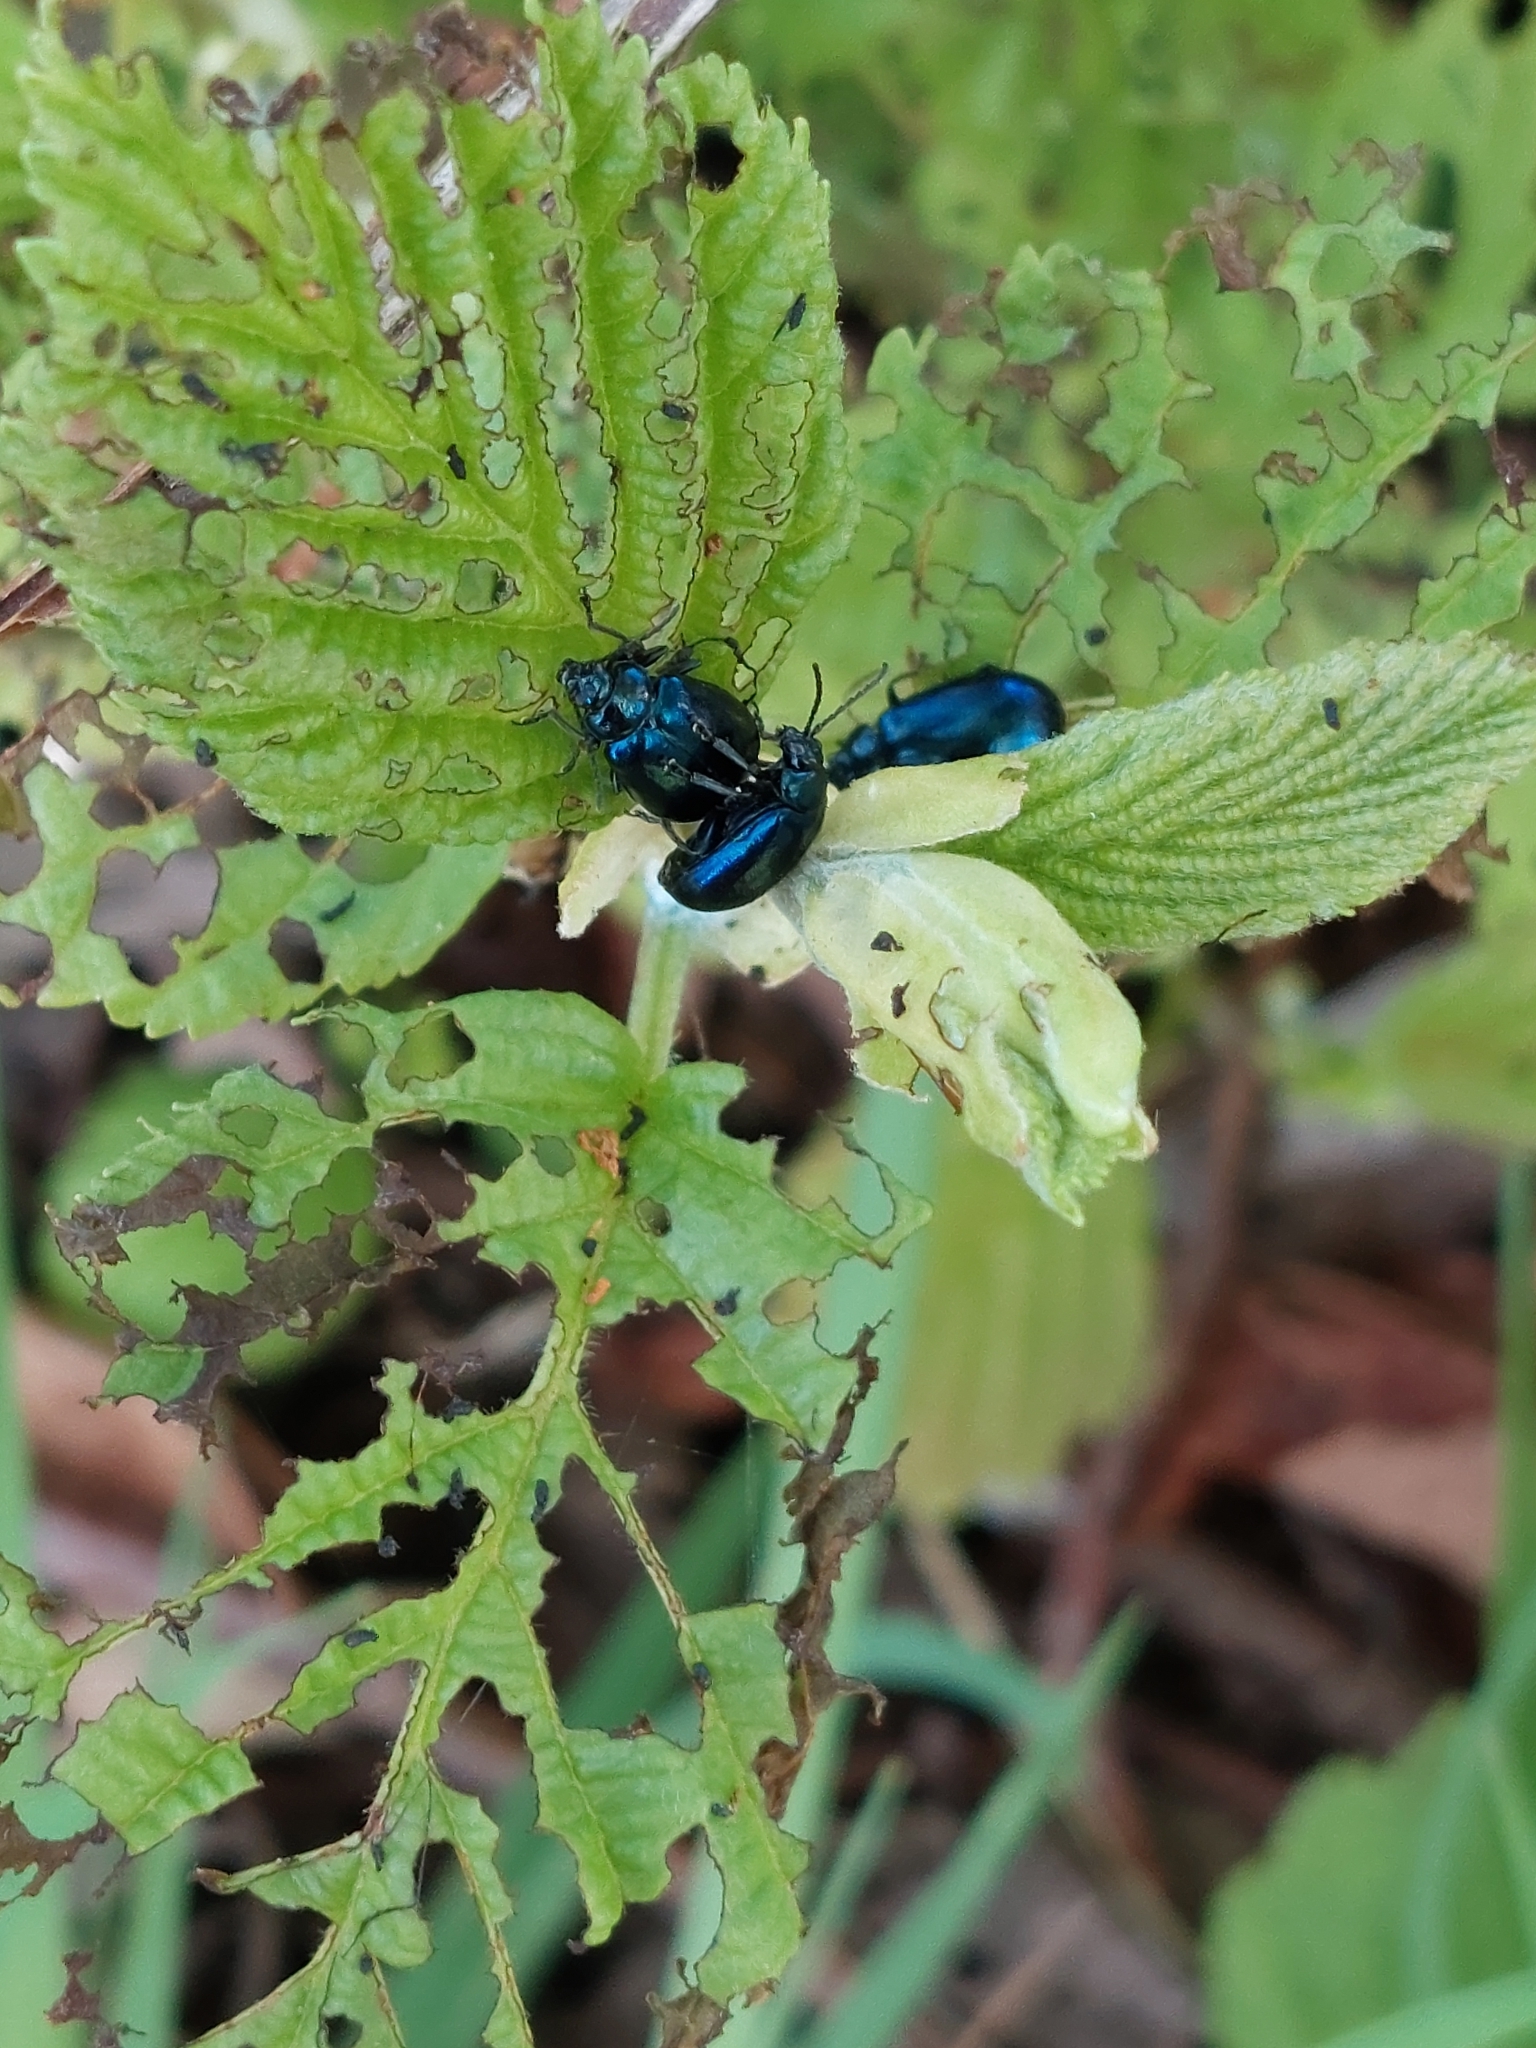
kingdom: Animalia
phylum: Arthropoda
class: Insecta
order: Coleoptera
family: Chrysomelidae
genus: Agelastica
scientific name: Agelastica alni
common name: Alder leaf beetle
